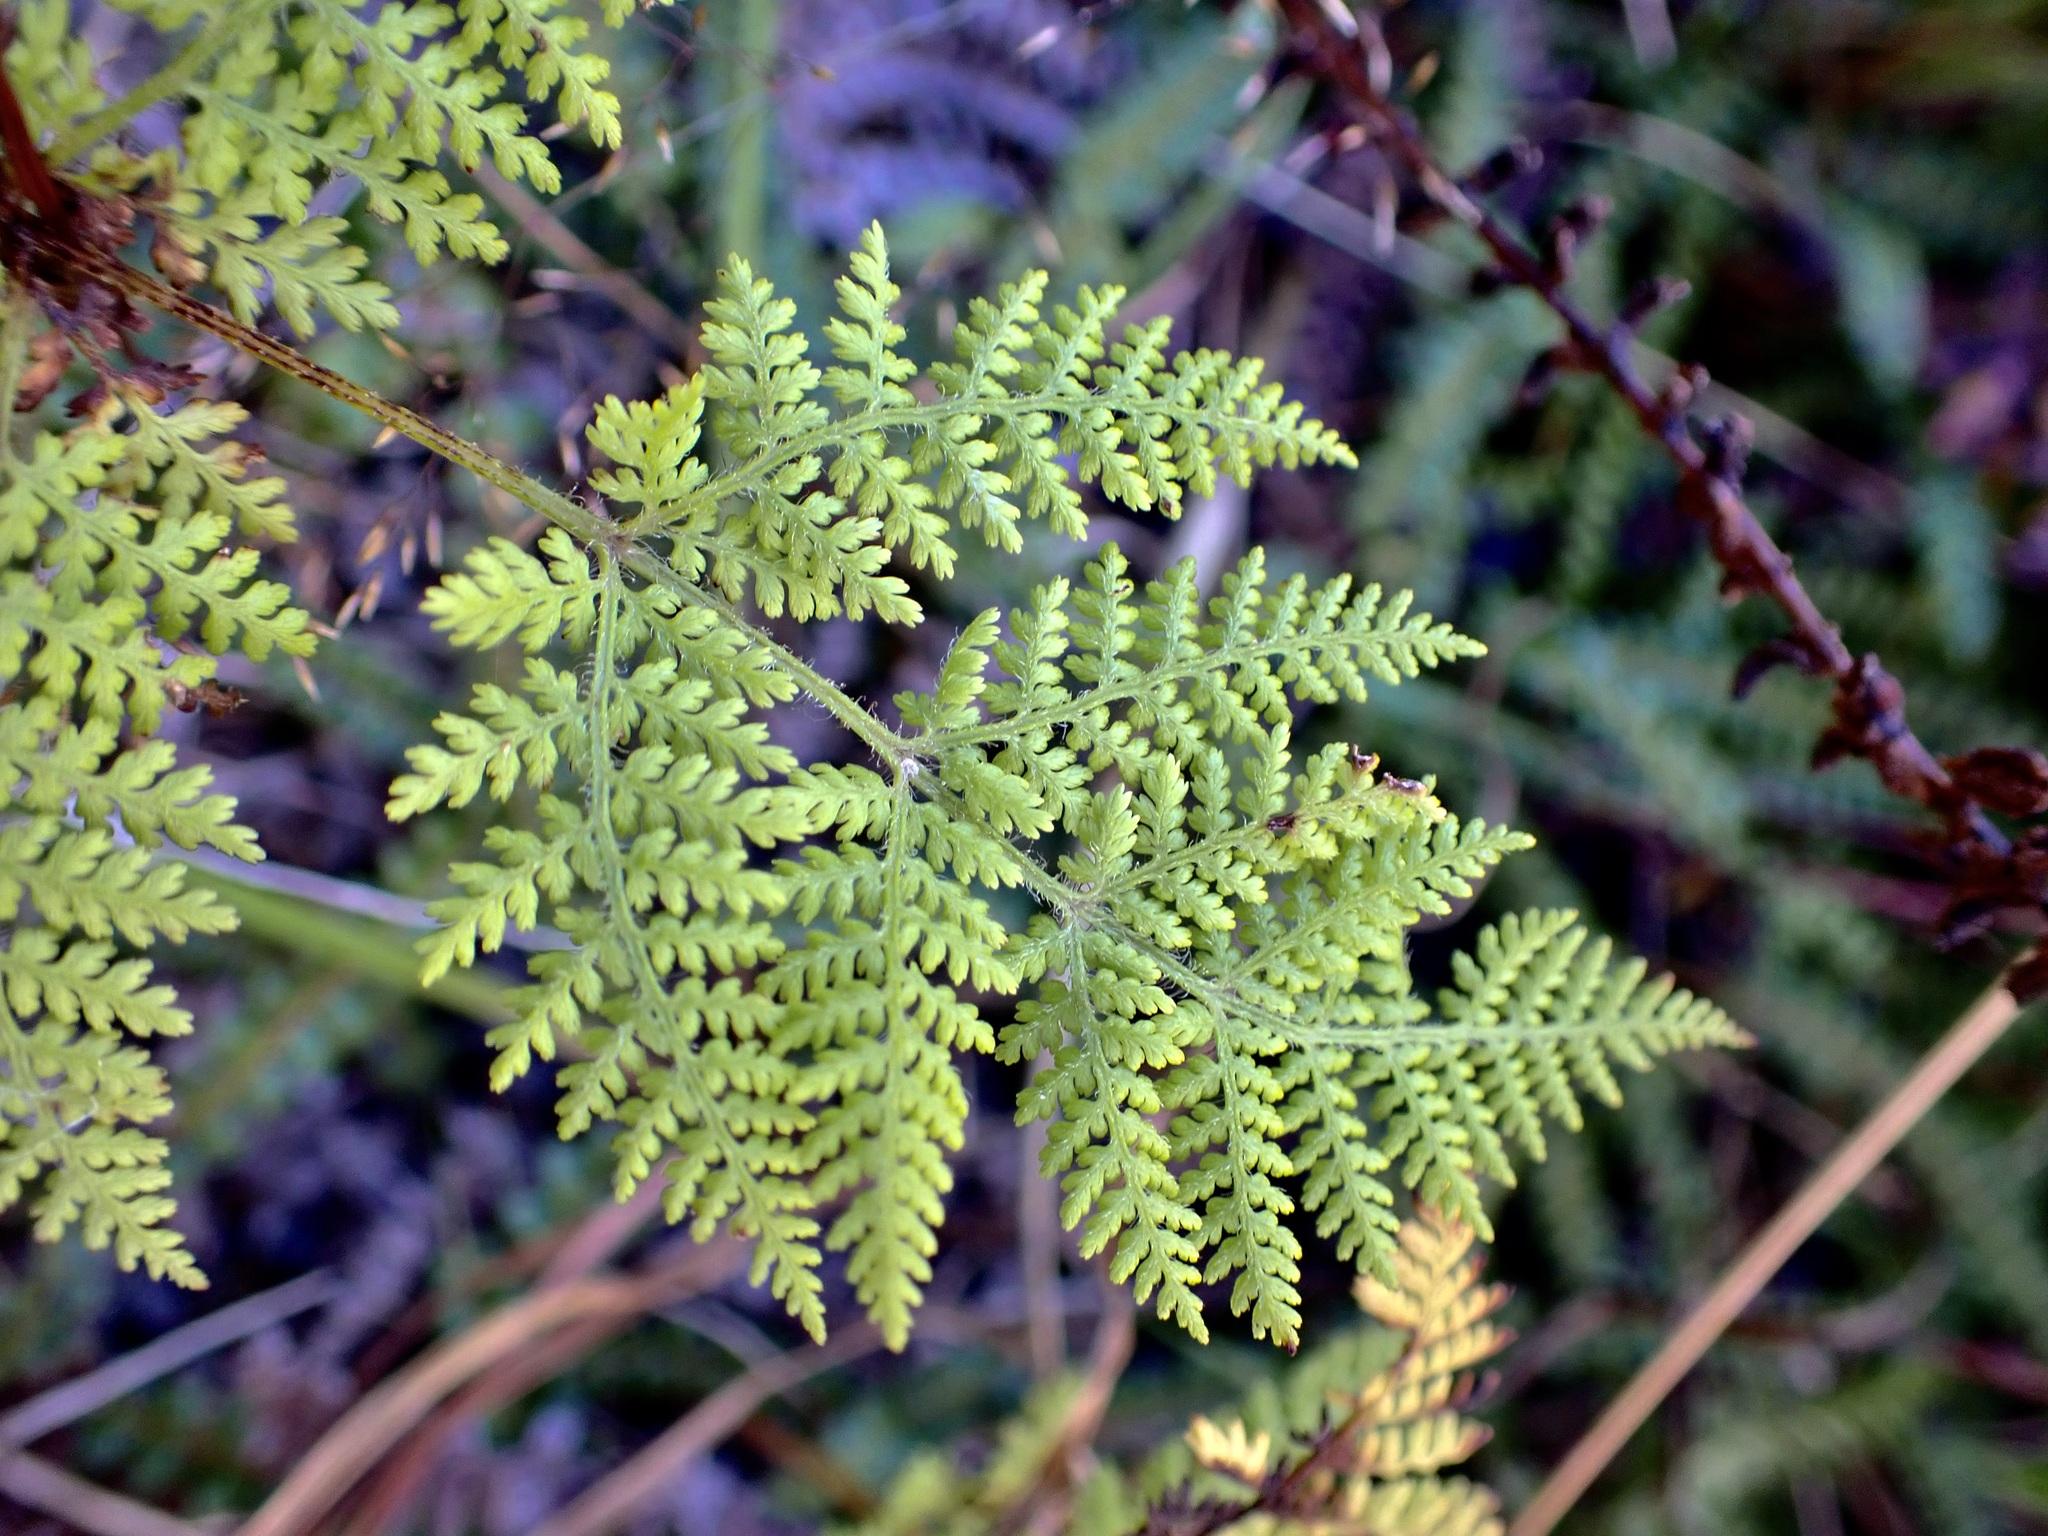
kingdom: Plantae
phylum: Tracheophyta
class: Polypodiopsida
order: Polypodiales
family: Dennstaedtiaceae
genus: Hypolepis
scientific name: Hypolepis millefolium
